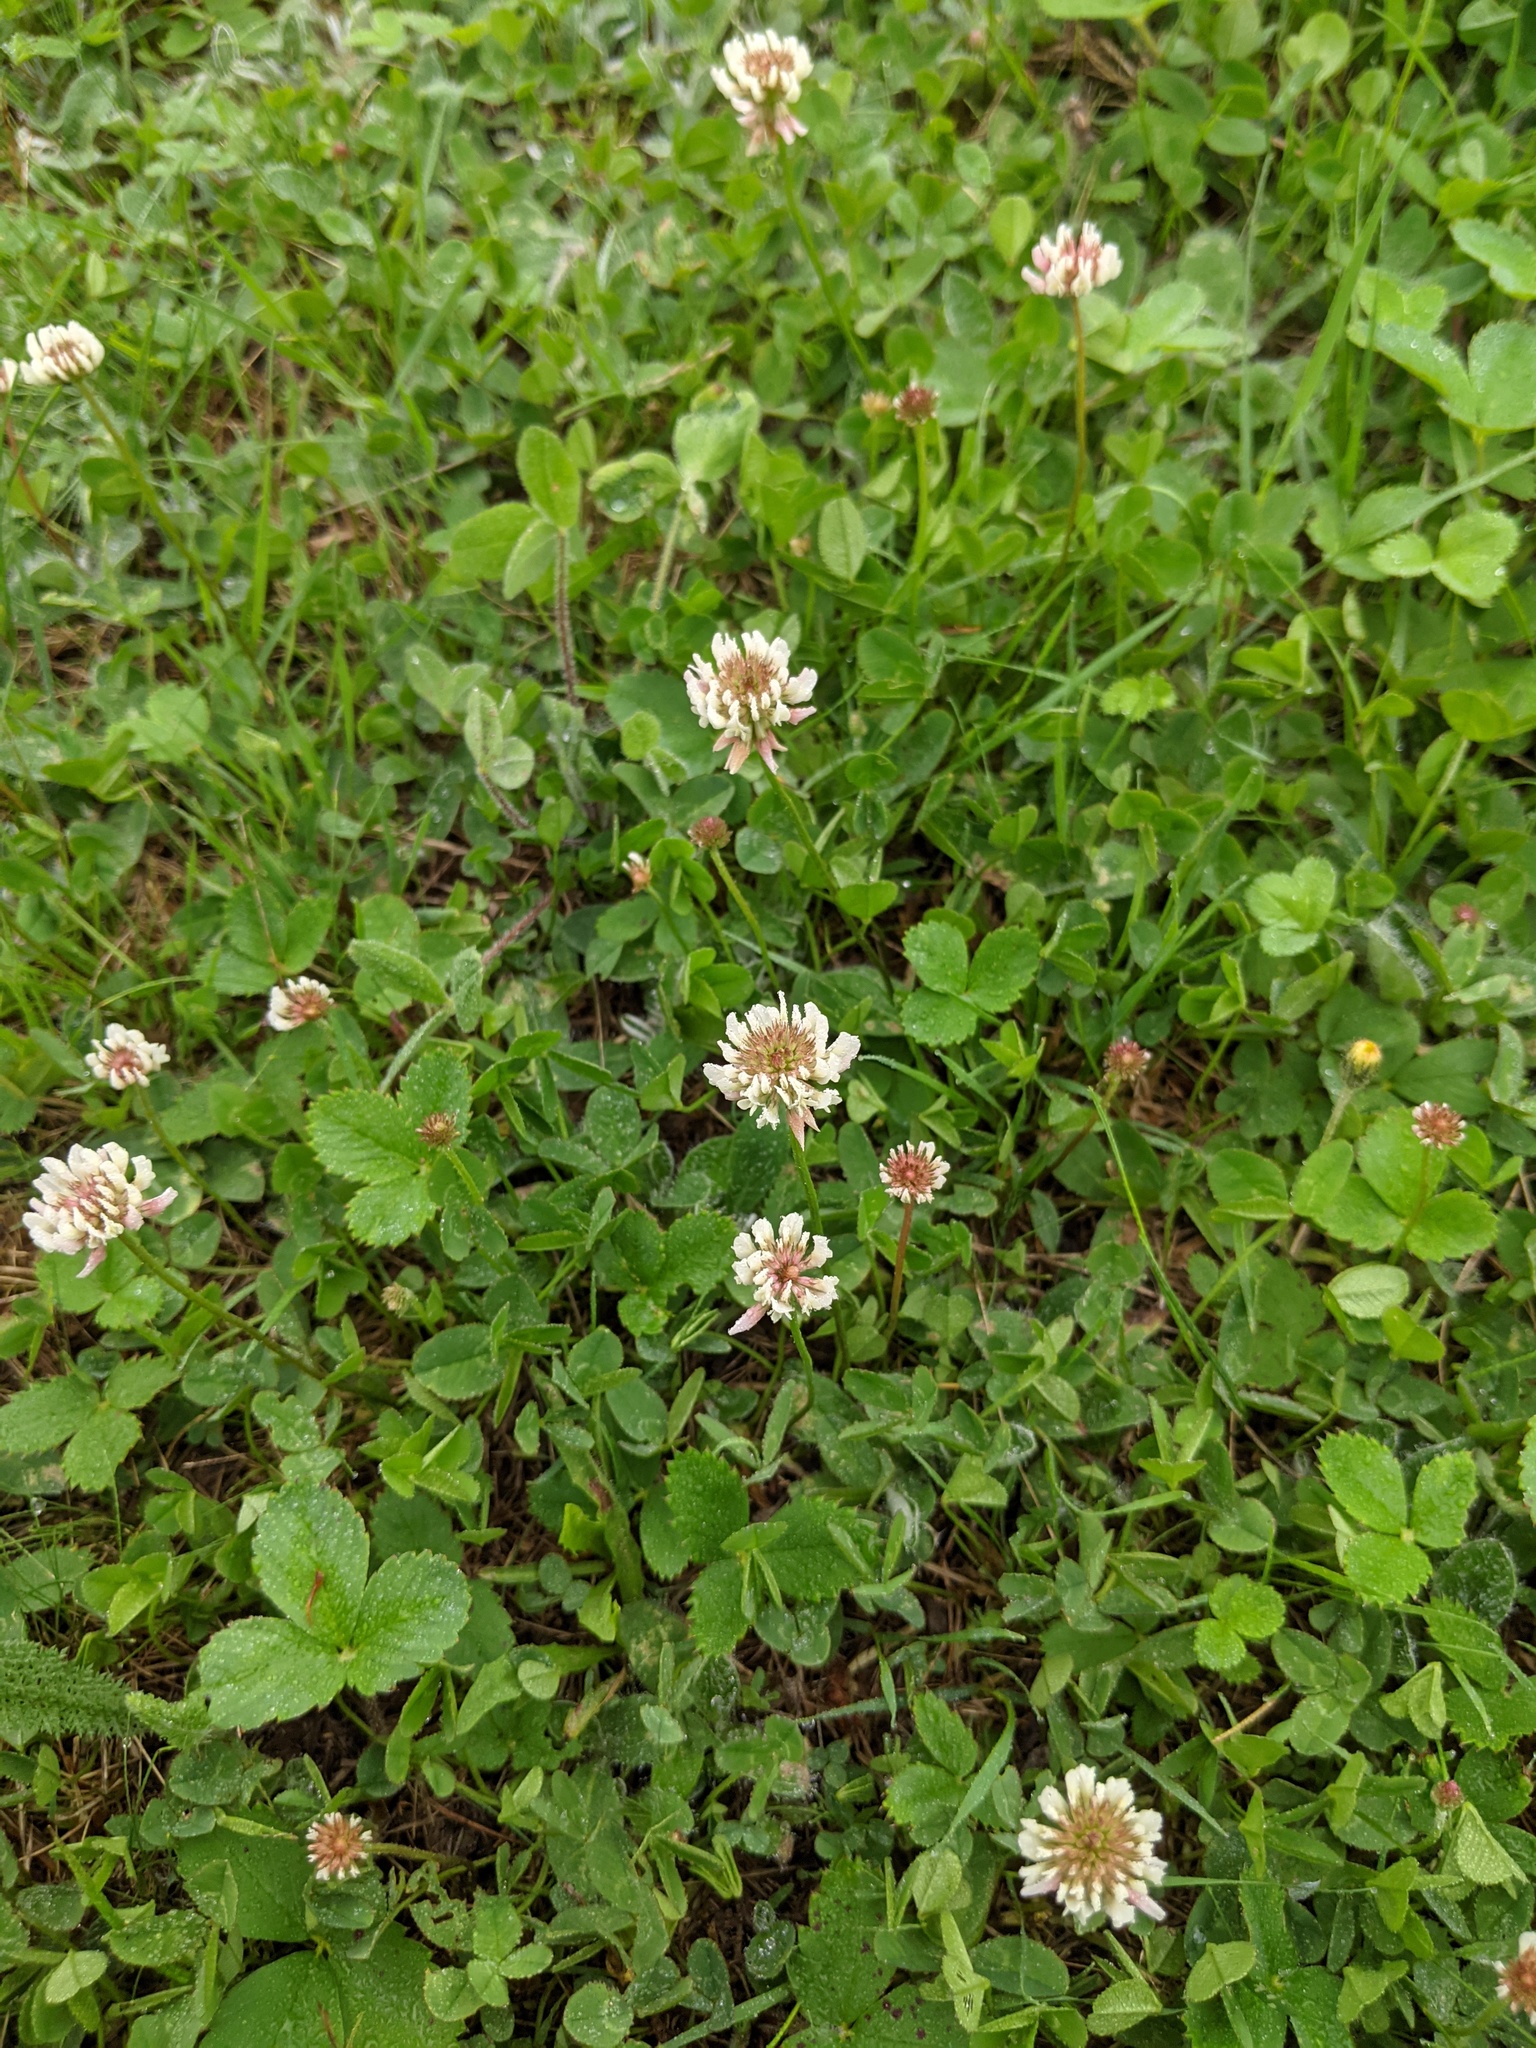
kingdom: Plantae
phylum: Tracheophyta
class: Magnoliopsida
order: Fabales
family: Fabaceae
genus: Trifolium
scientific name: Trifolium repens
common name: White clover
